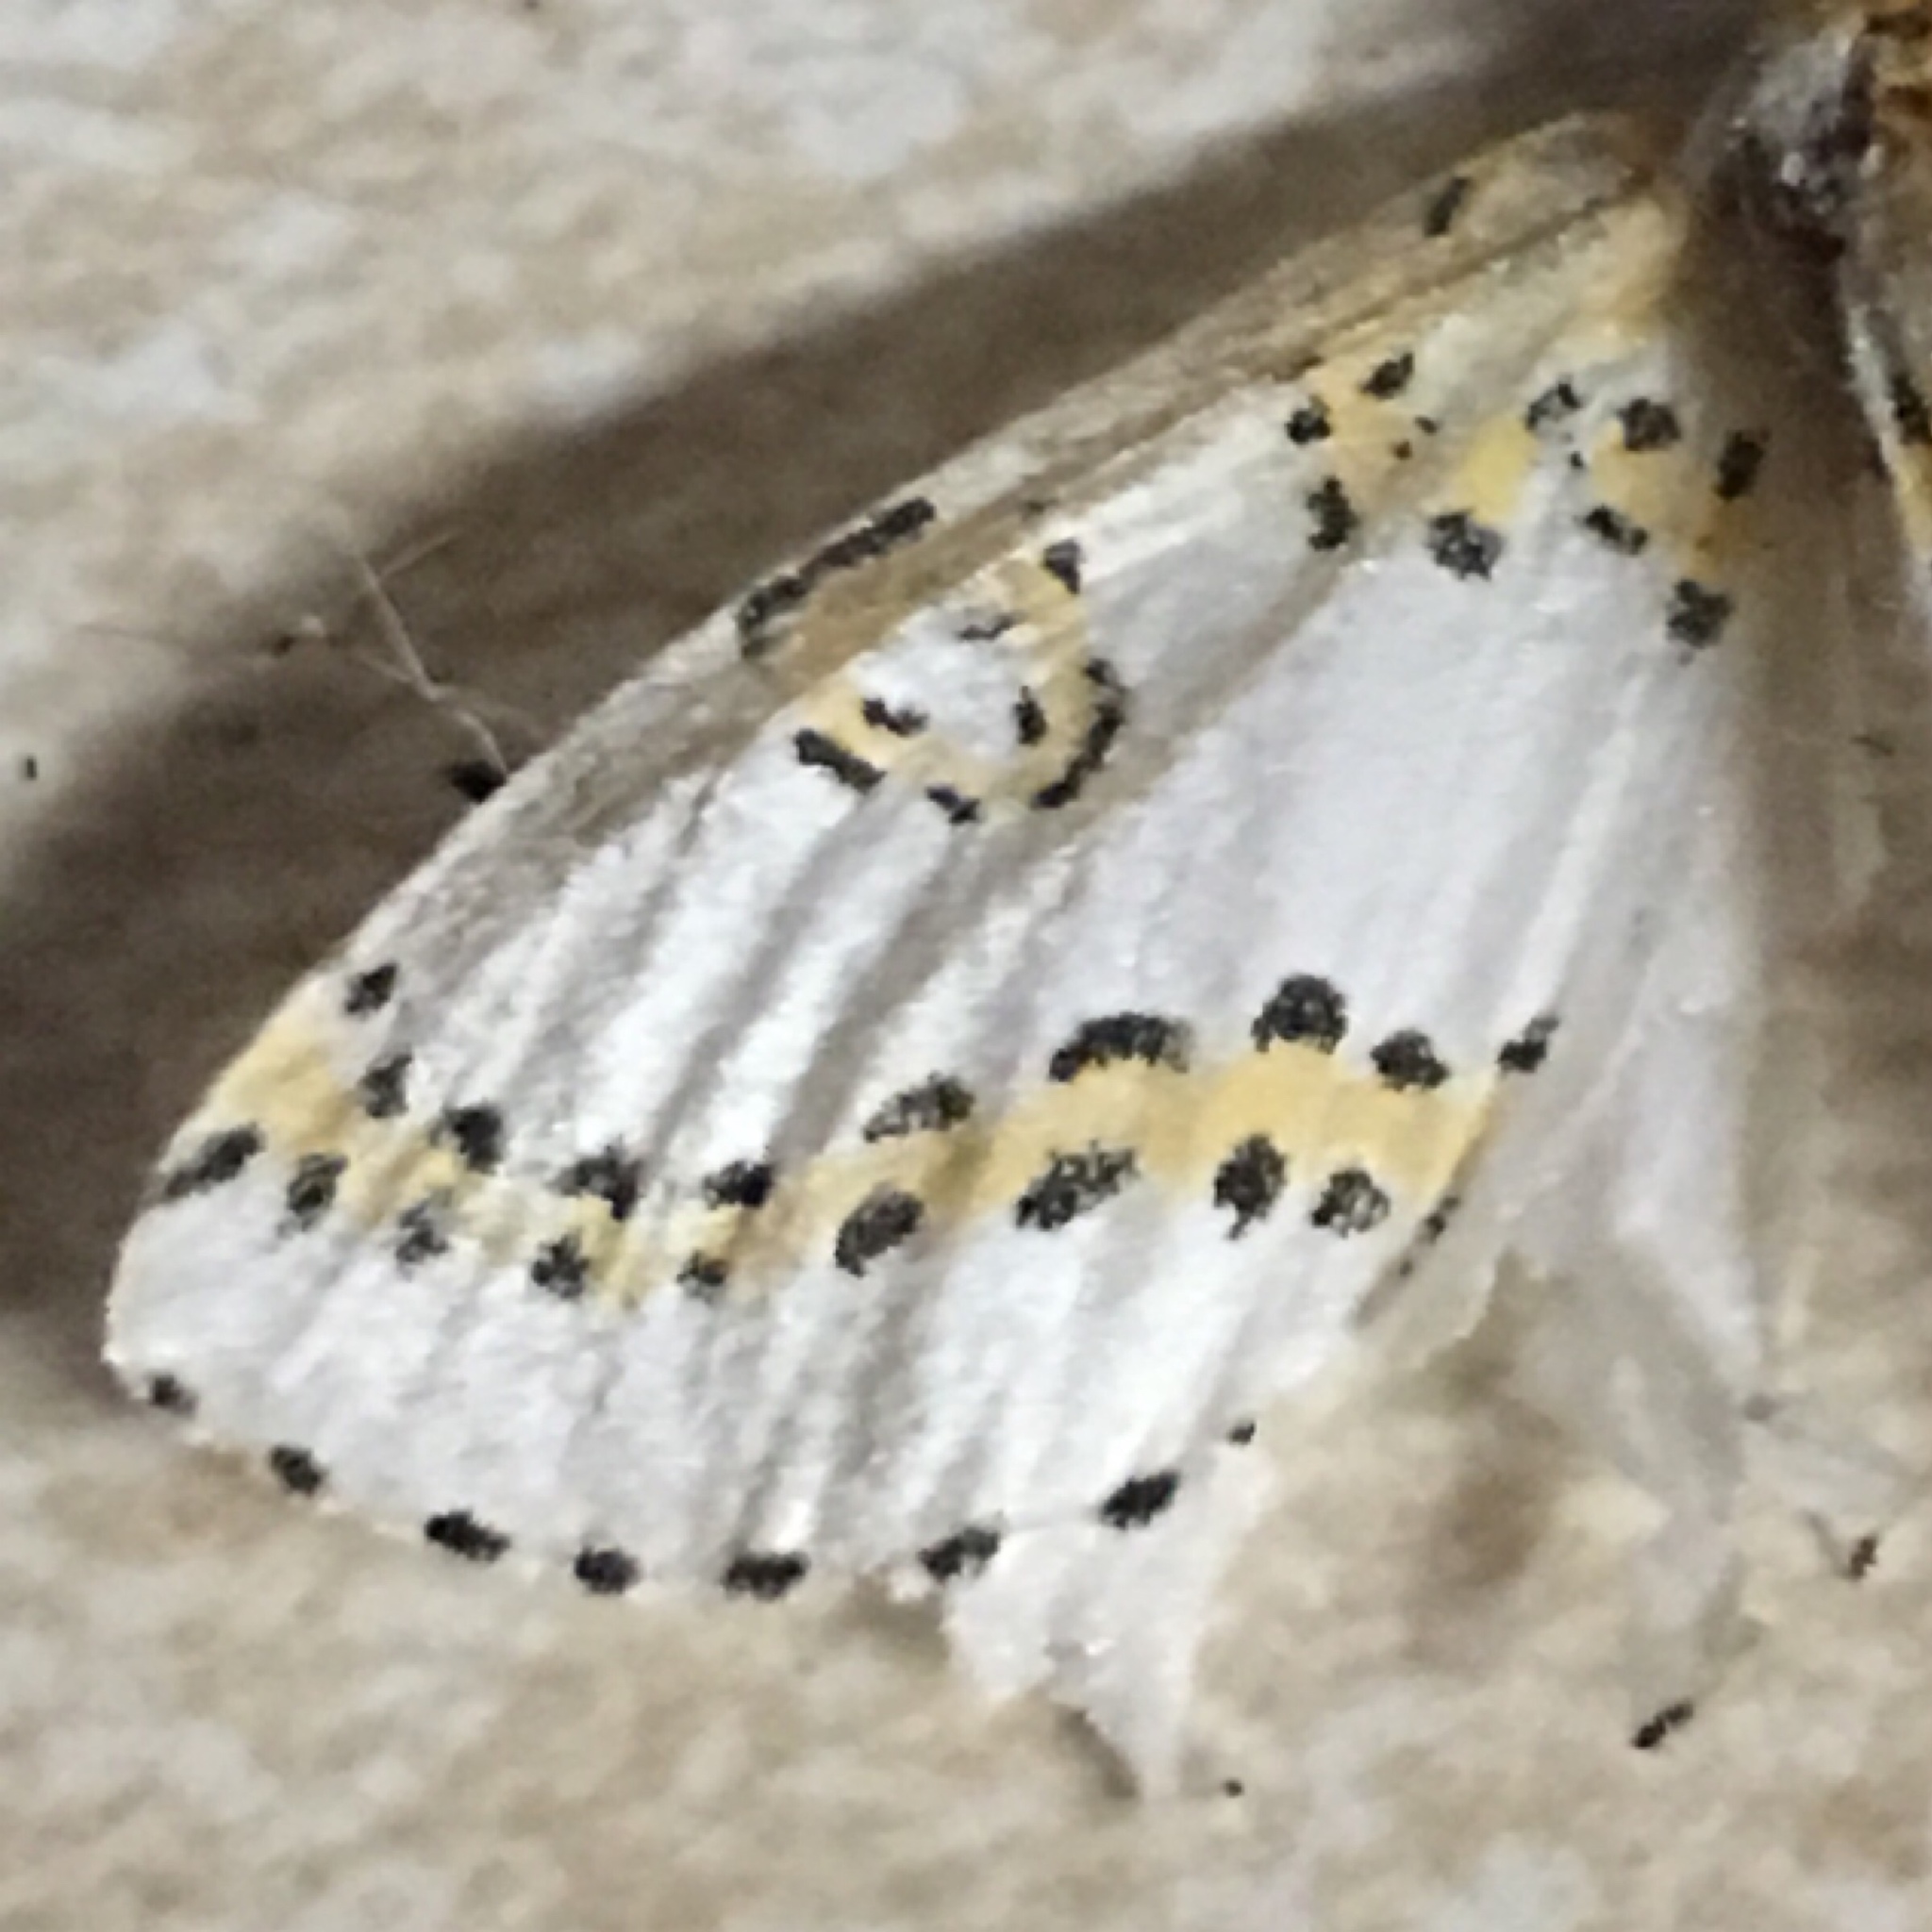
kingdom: Animalia
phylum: Arthropoda
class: Insecta
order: Lepidoptera
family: Geometridae
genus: Philtraea
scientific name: Philtraea monillata
